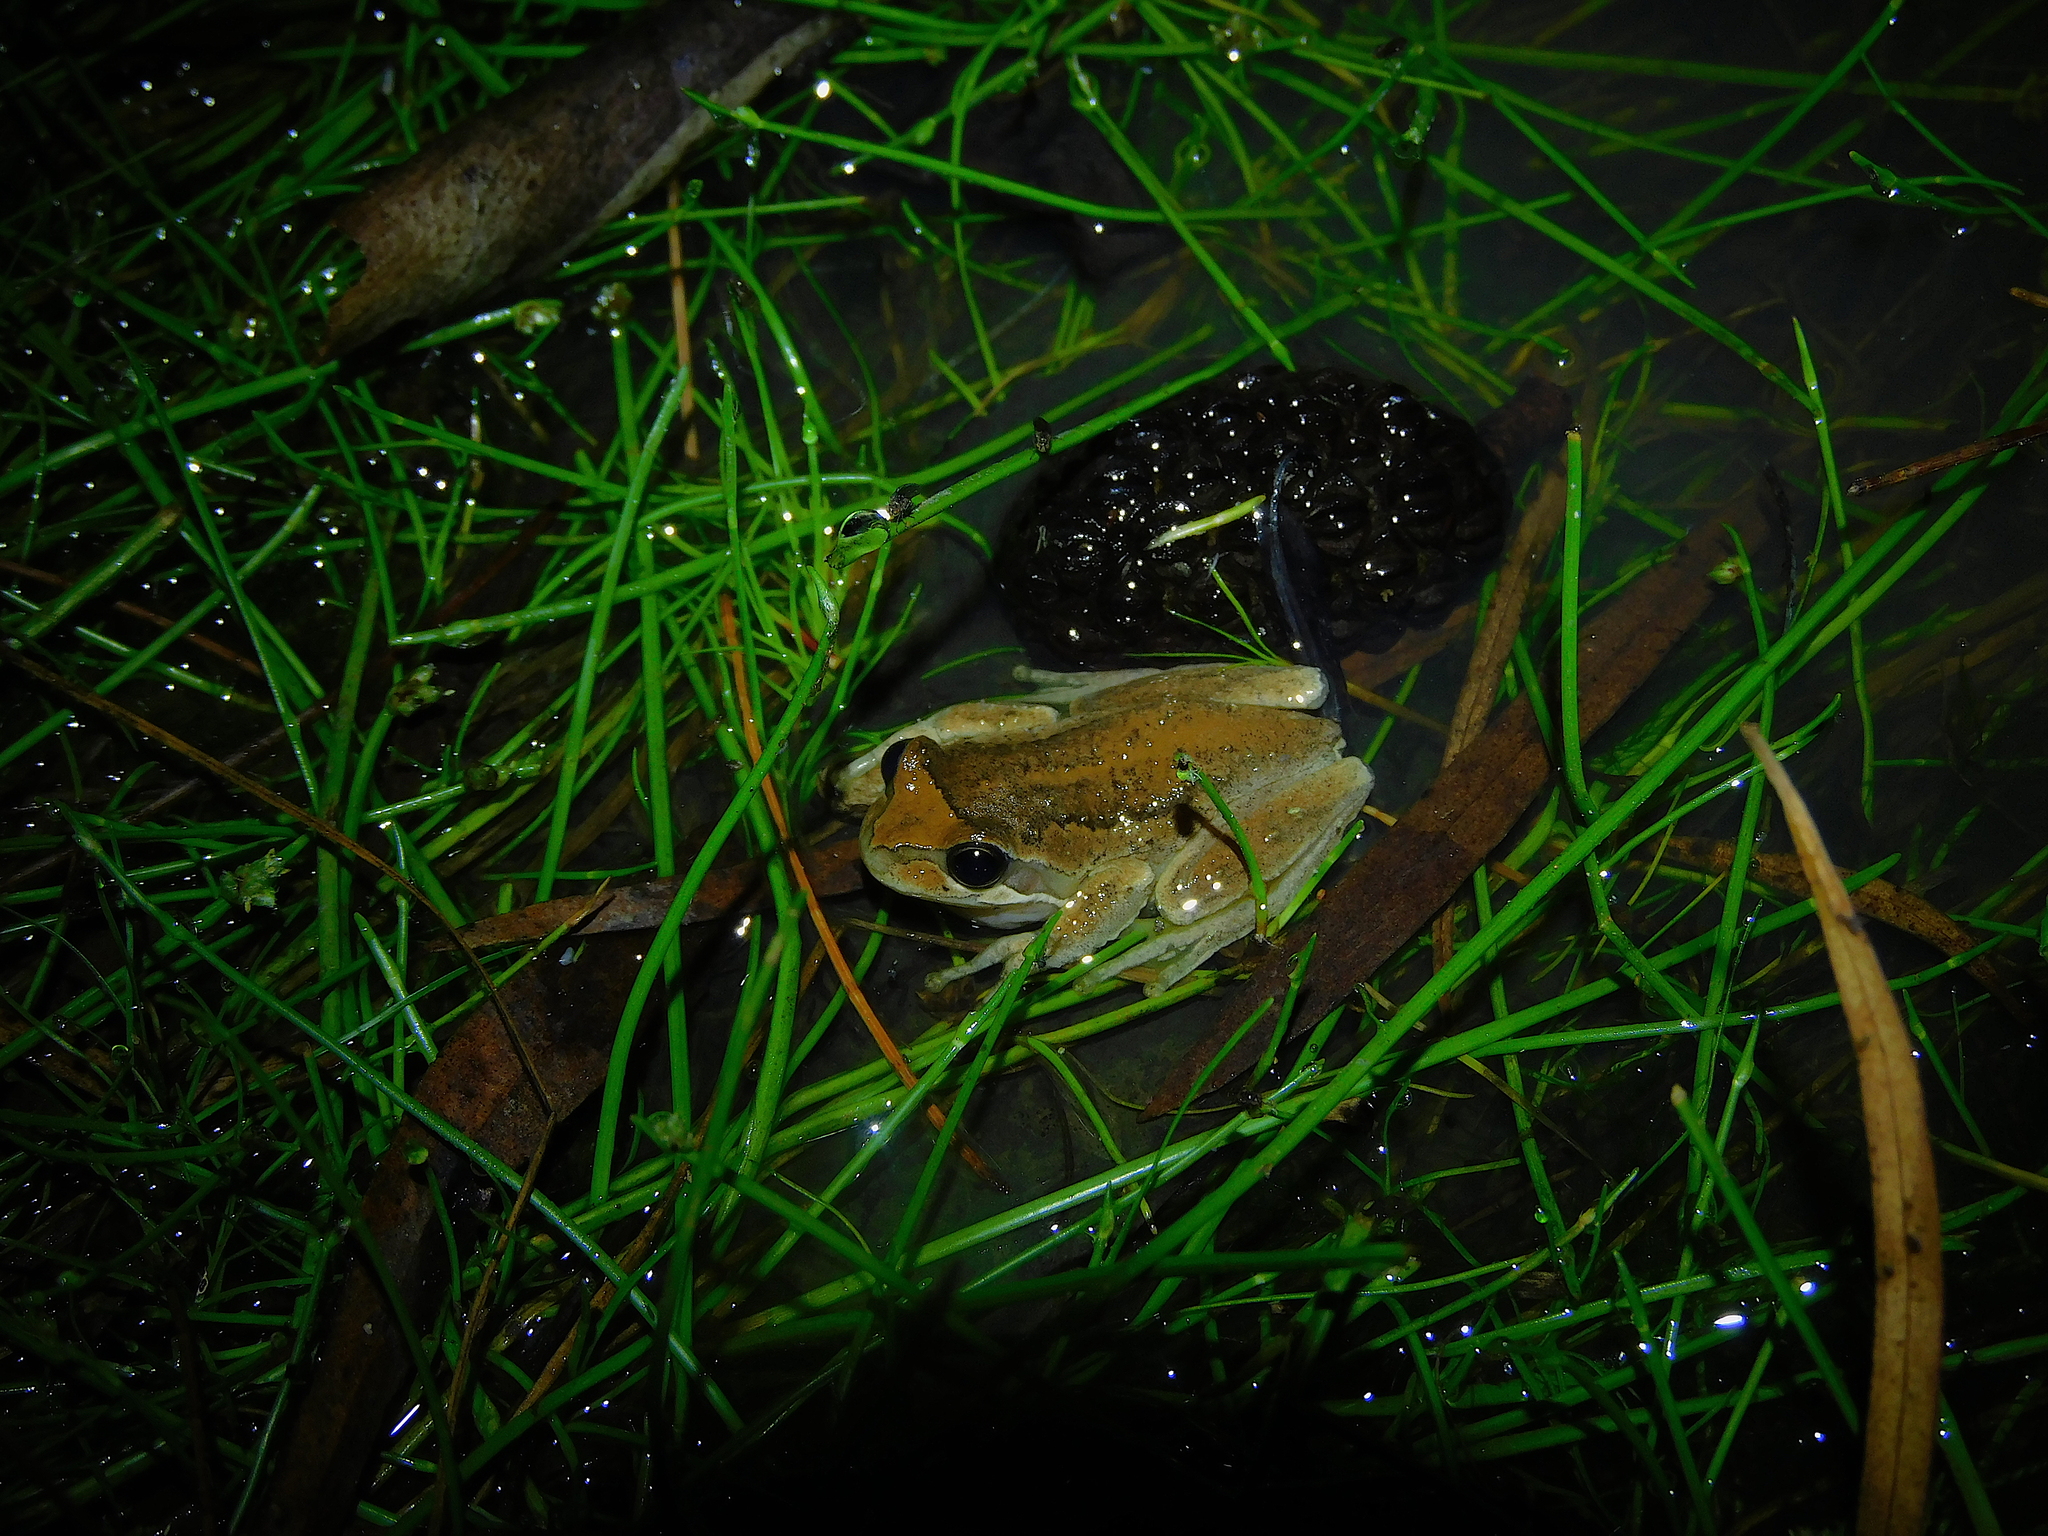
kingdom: Animalia
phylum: Chordata
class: Amphibia
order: Anura
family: Pelodryadidae
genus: Litoria
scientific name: Litoria ewingii
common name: Southern brown tree frog
